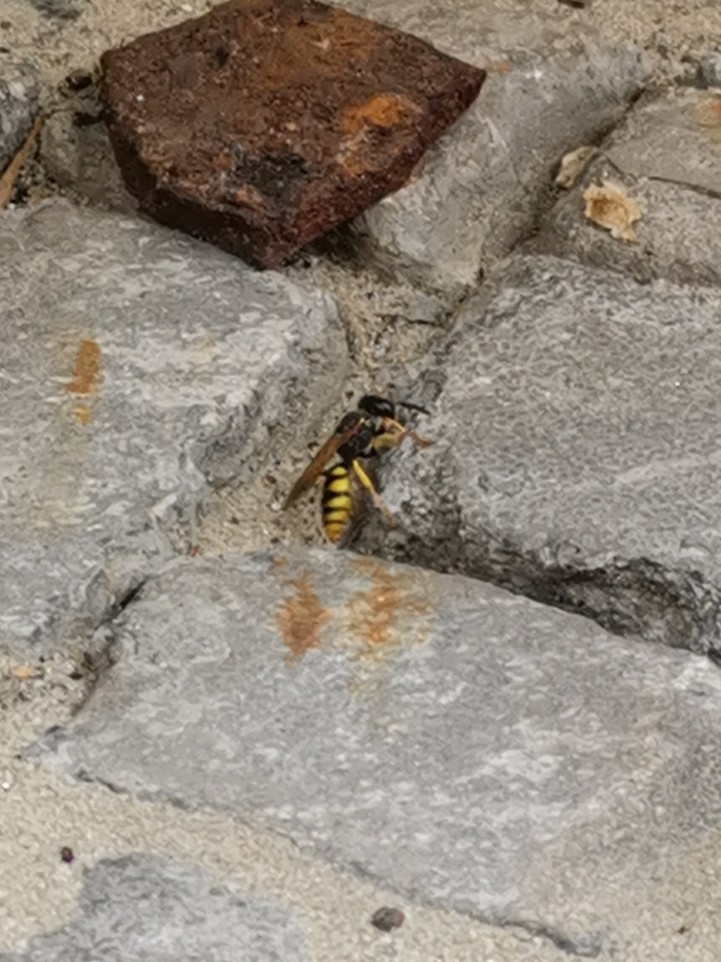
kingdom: Animalia
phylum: Arthropoda
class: Insecta
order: Hymenoptera
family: Crabronidae
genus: Philanthus
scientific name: Philanthus triangulum
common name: Bee wolf
